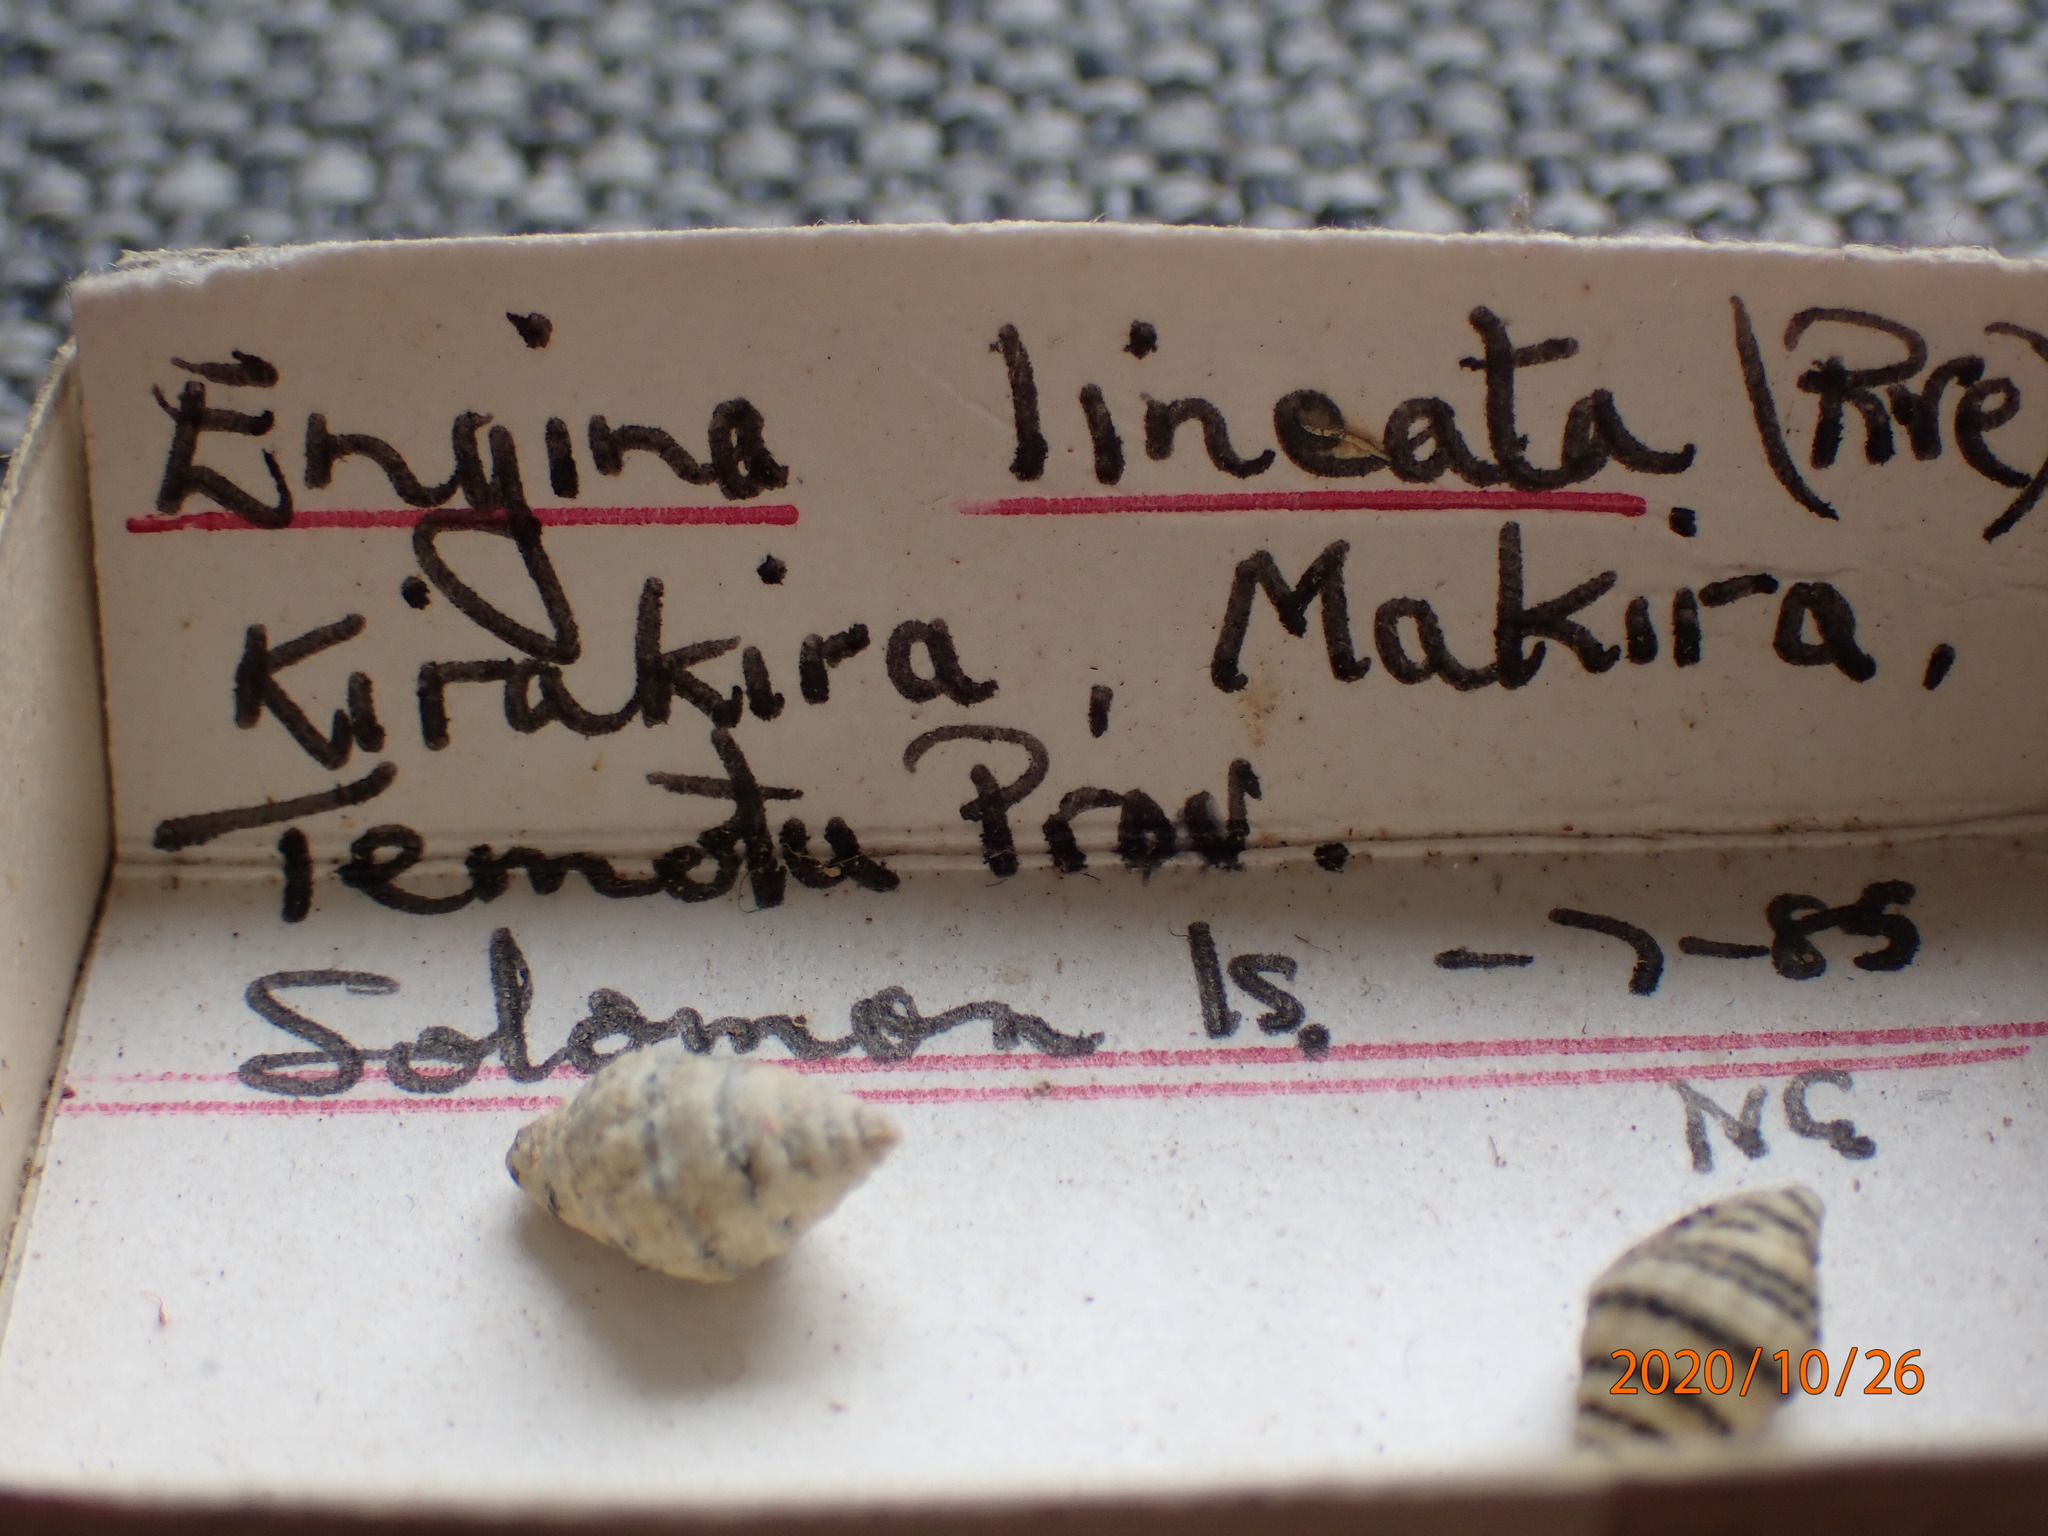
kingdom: Animalia
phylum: Mollusca
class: Gastropoda
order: Neogastropoda
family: Pisaniidae
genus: Engina
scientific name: Engina lineata
